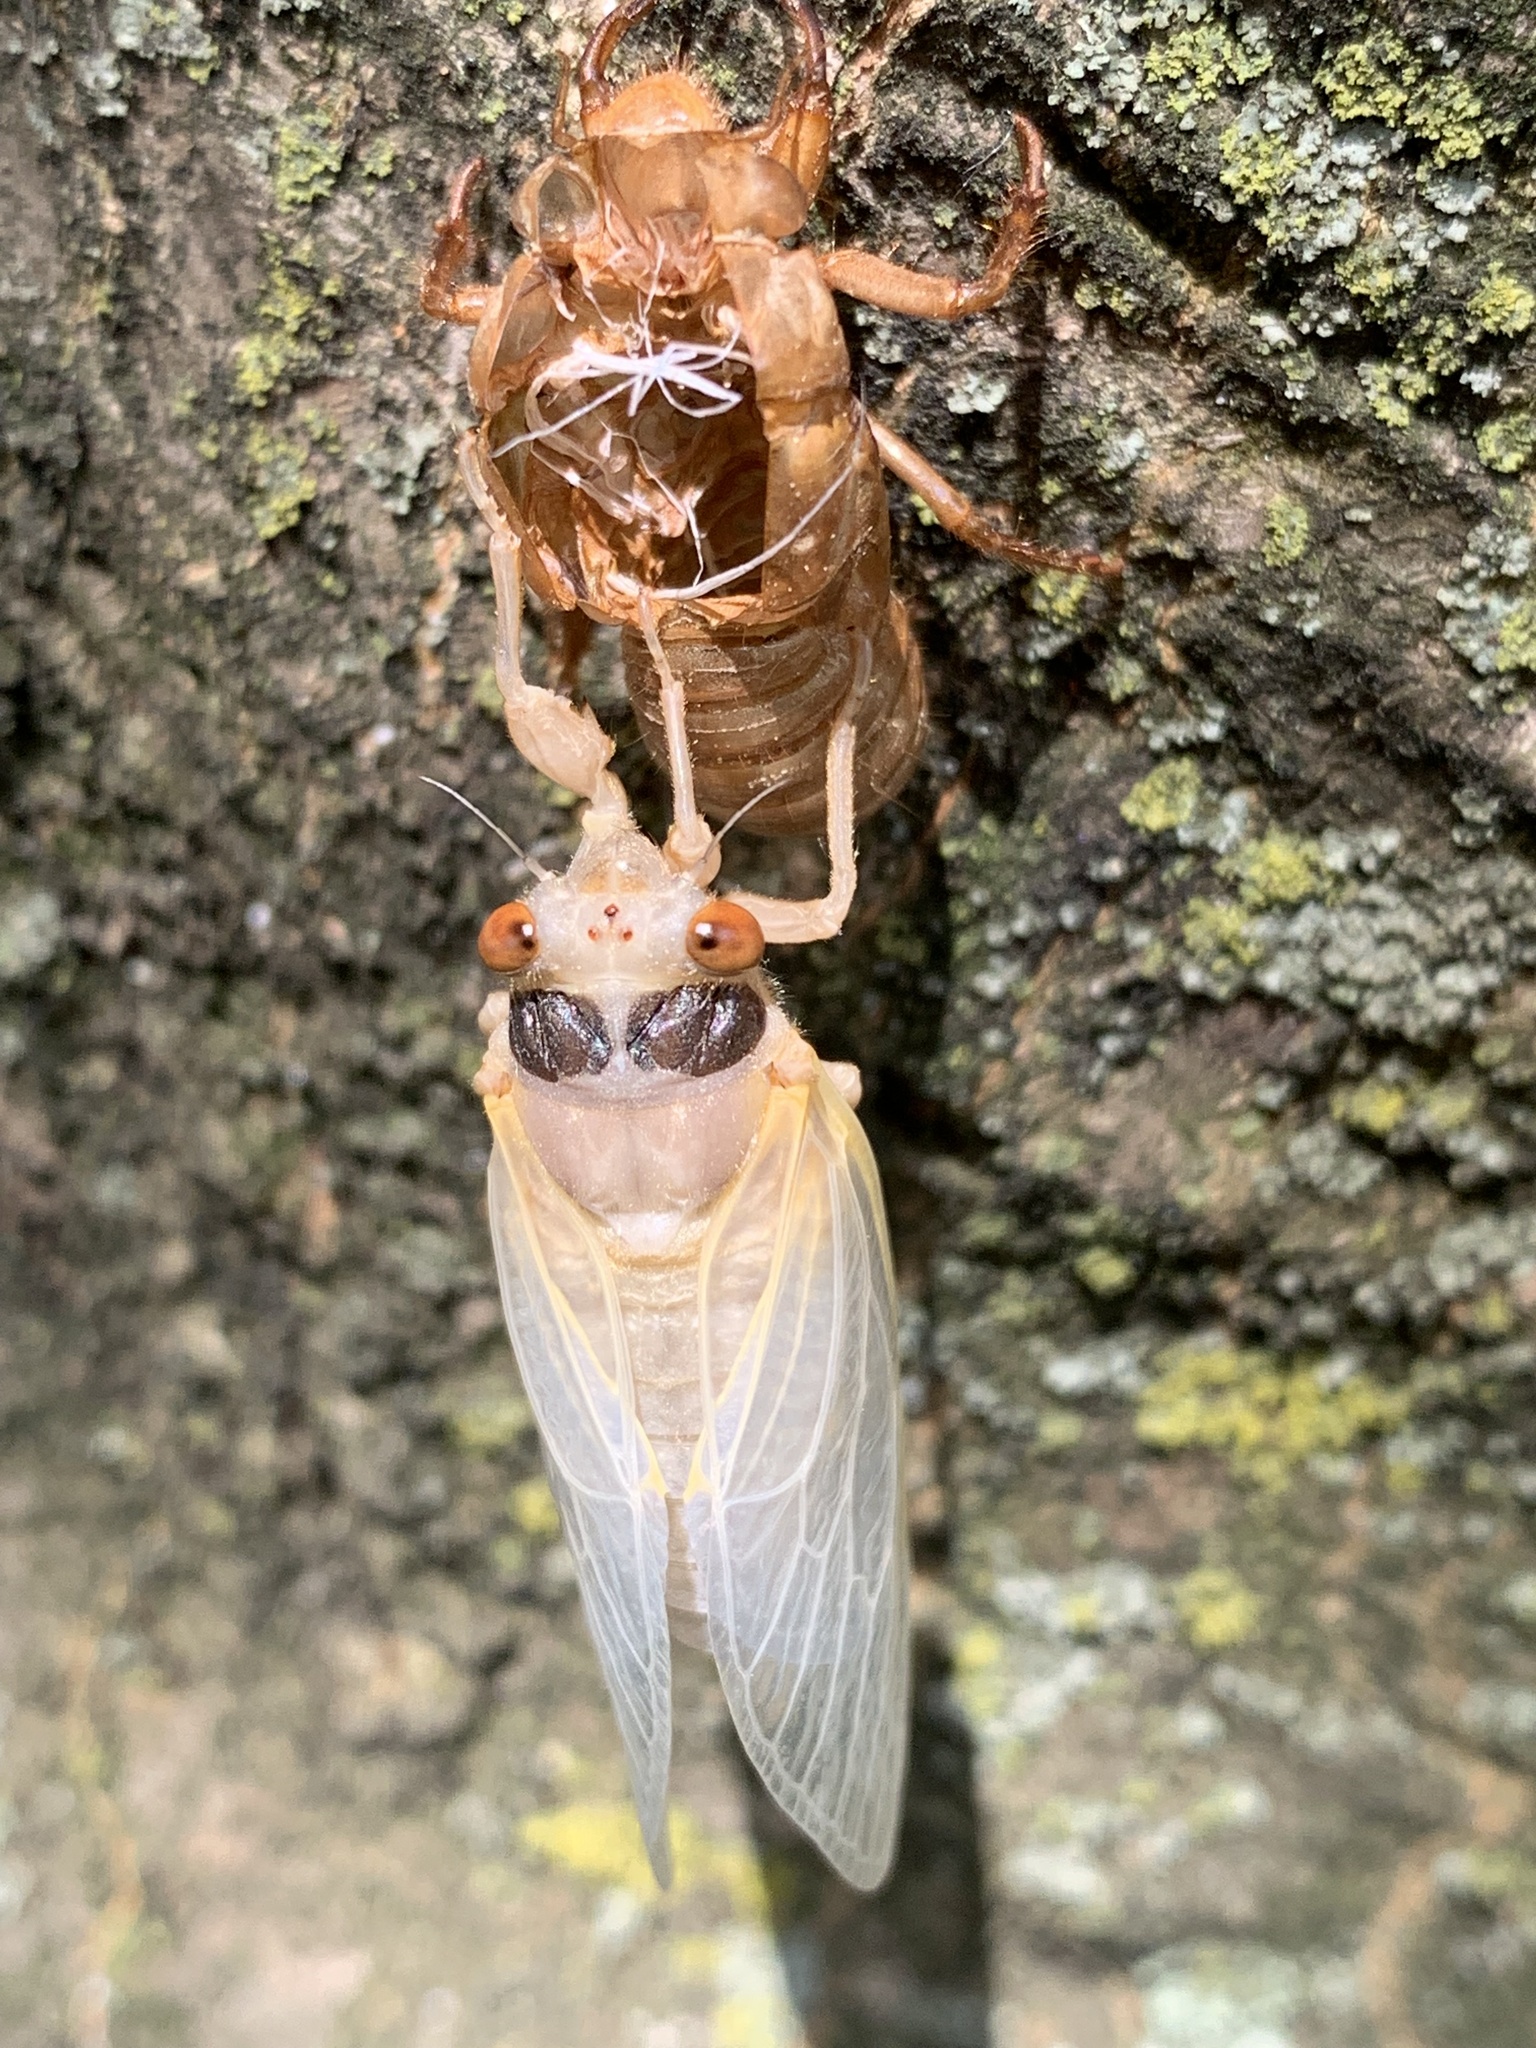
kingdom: Animalia
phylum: Arthropoda
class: Insecta
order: Hemiptera
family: Cicadidae
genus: Magicicada
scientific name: Magicicada
